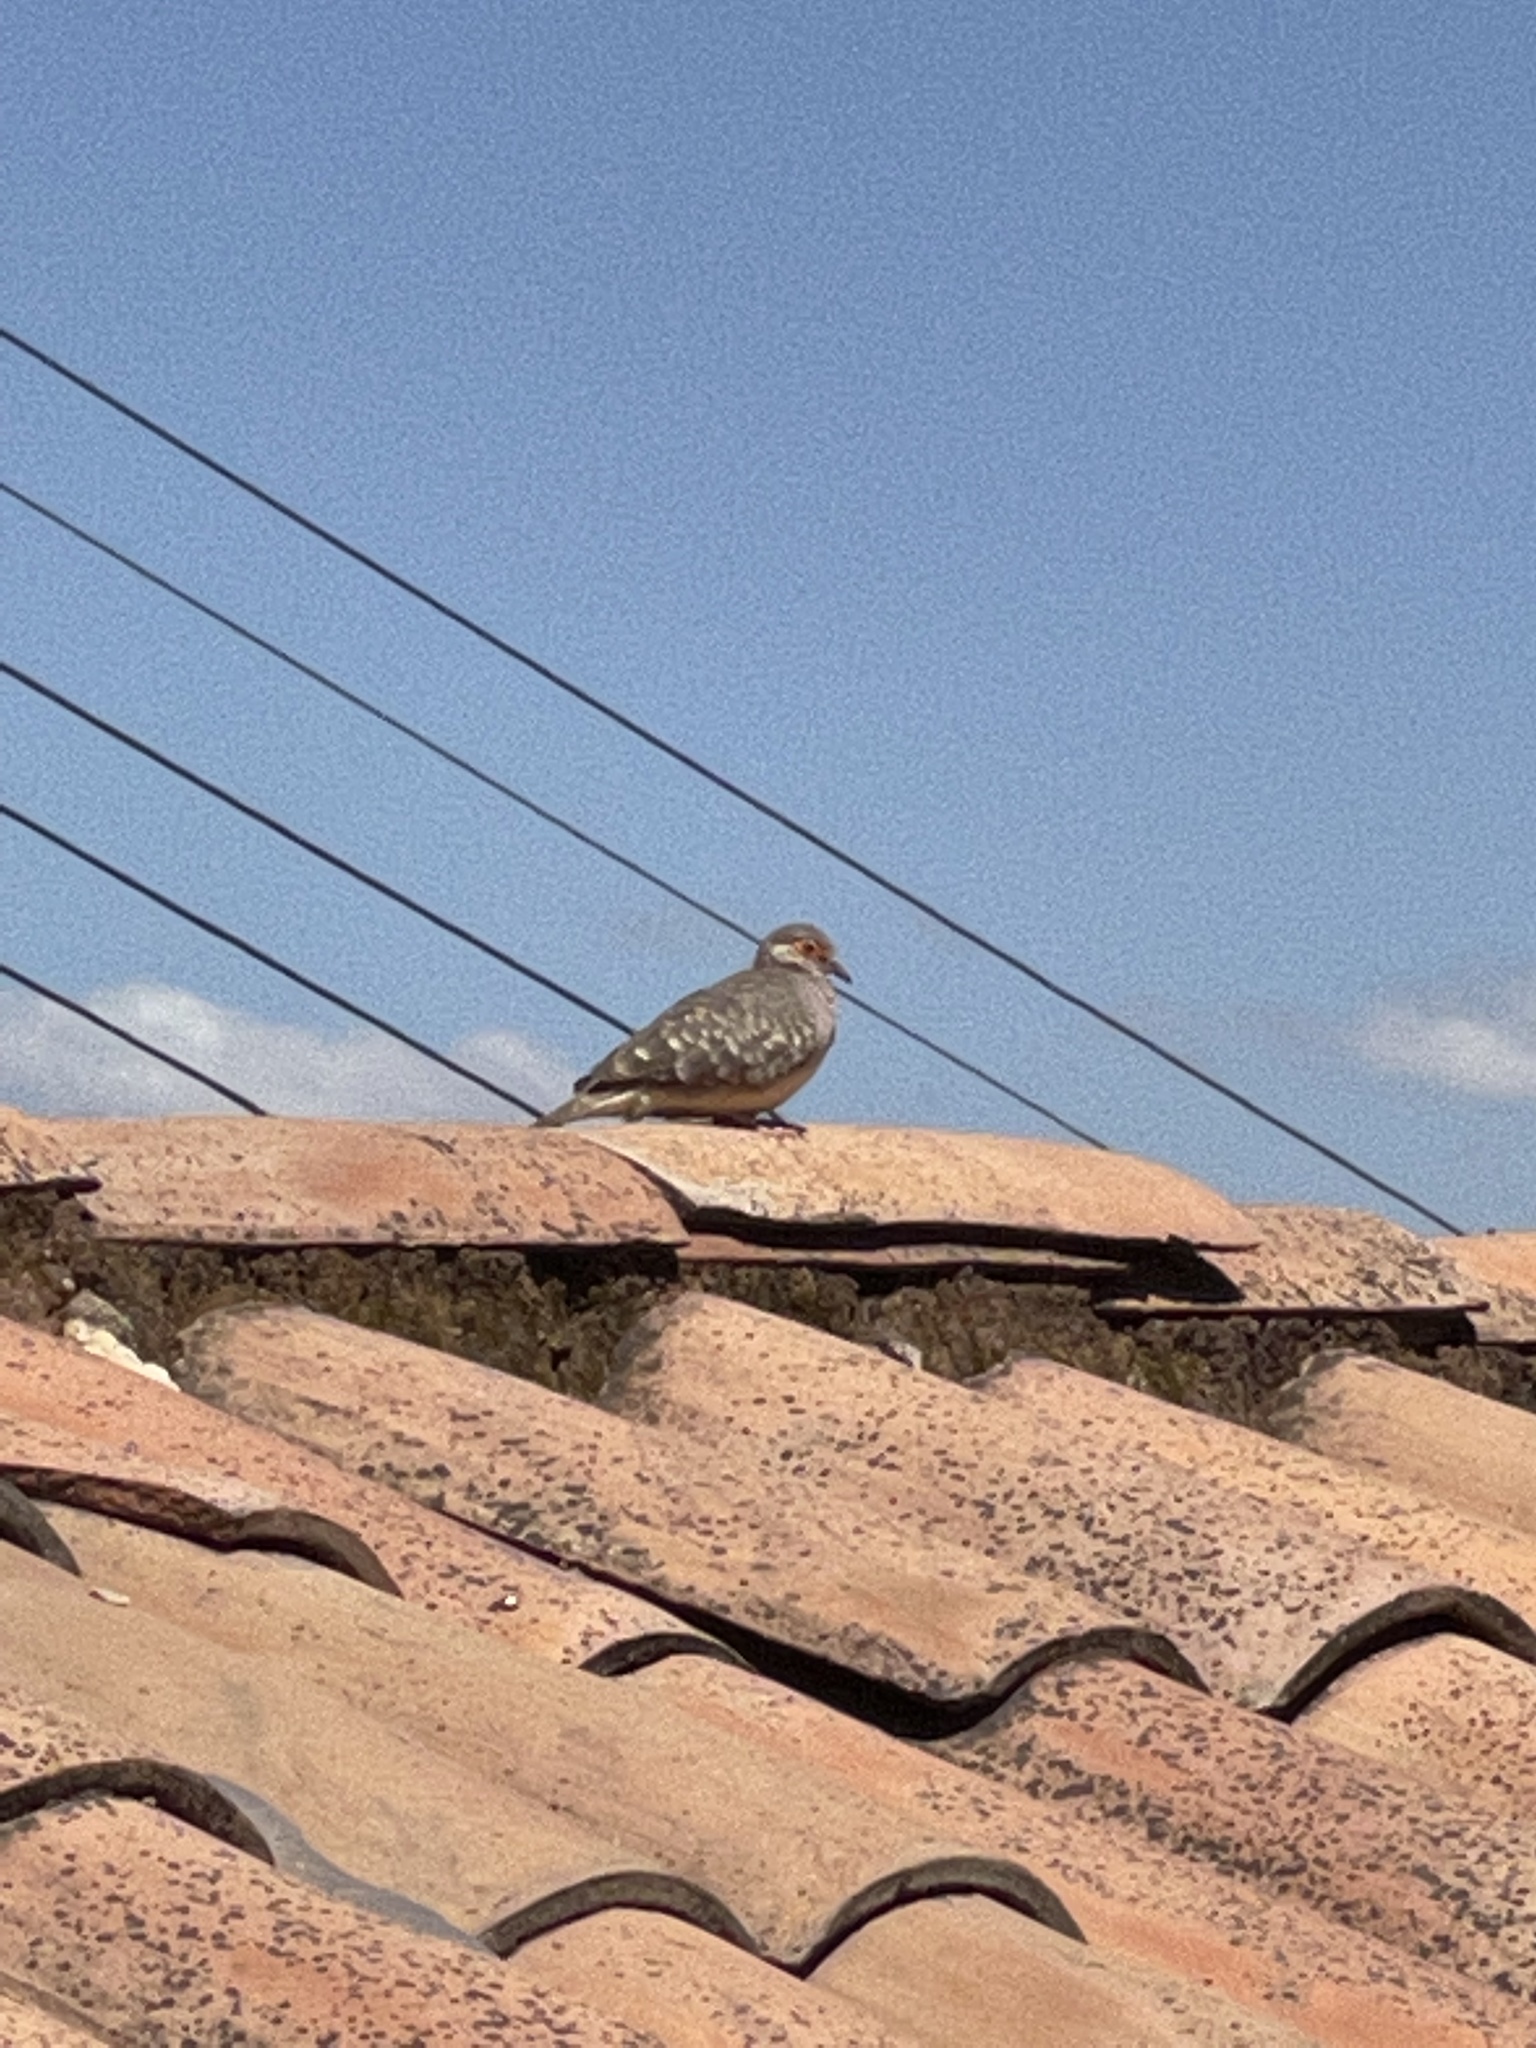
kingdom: Animalia
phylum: Chordata
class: Aves
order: Columbiformes
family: Columbidae
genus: Metriopelia
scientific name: Metriopelia ceciliae
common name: Bare-faced ground dove
